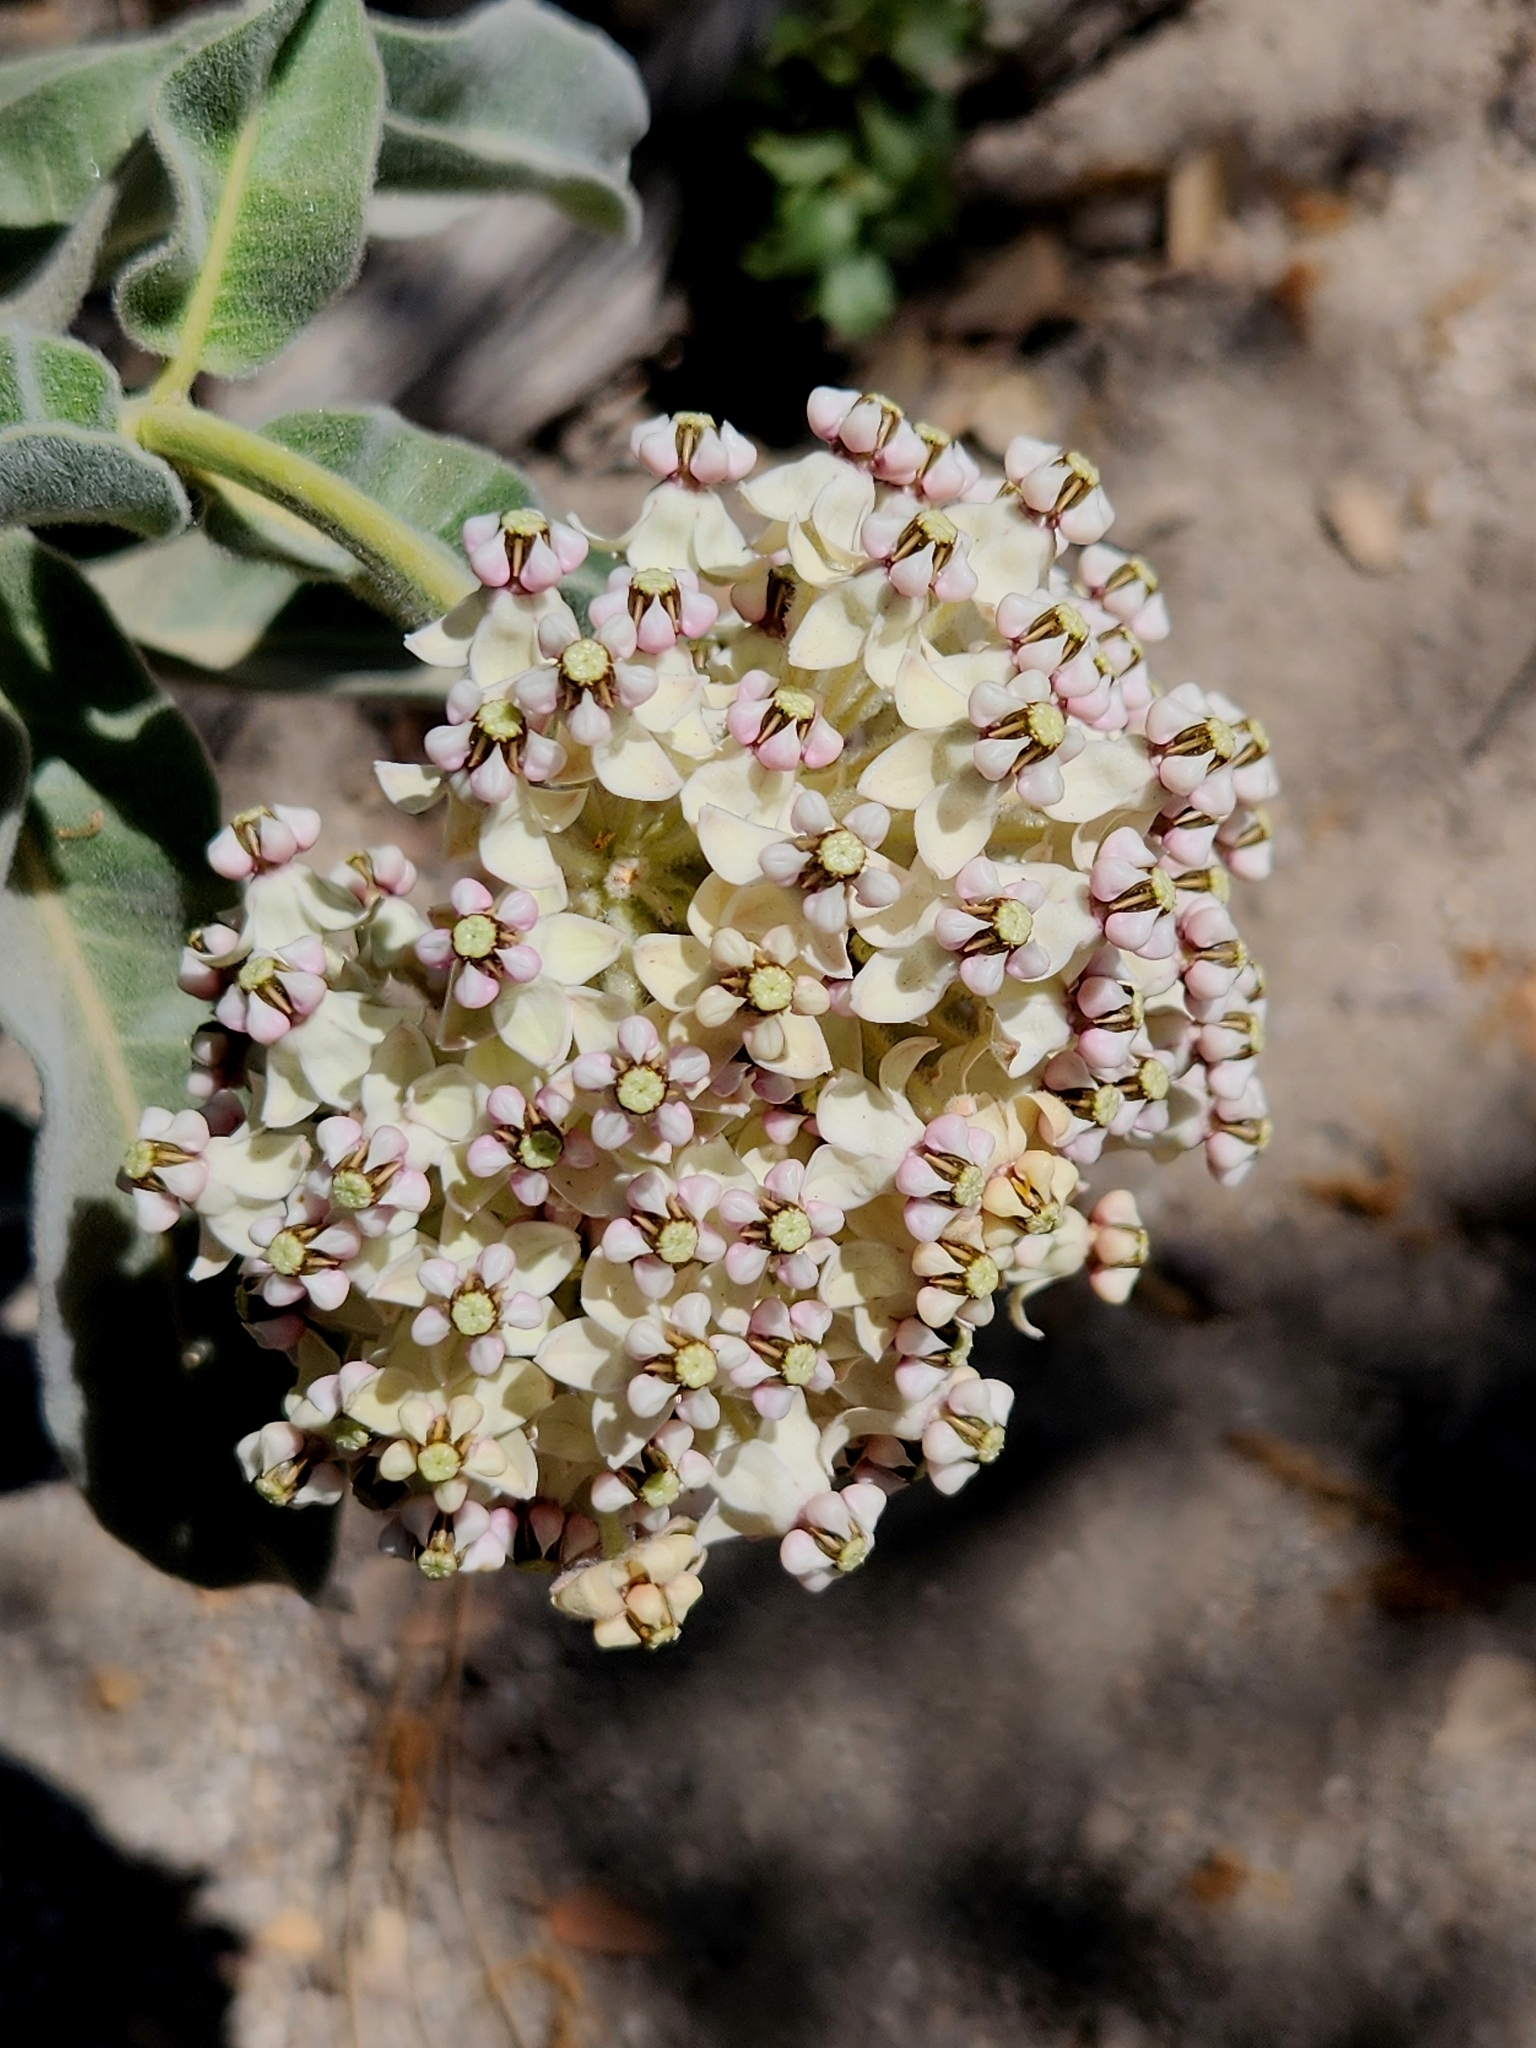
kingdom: Plantae
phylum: Tracheophyta
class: Magnoliopsida
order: Gentianales
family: Apocynaceae
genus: Asclepias
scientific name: Asclepias eriocarpa
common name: Indian milkweed
